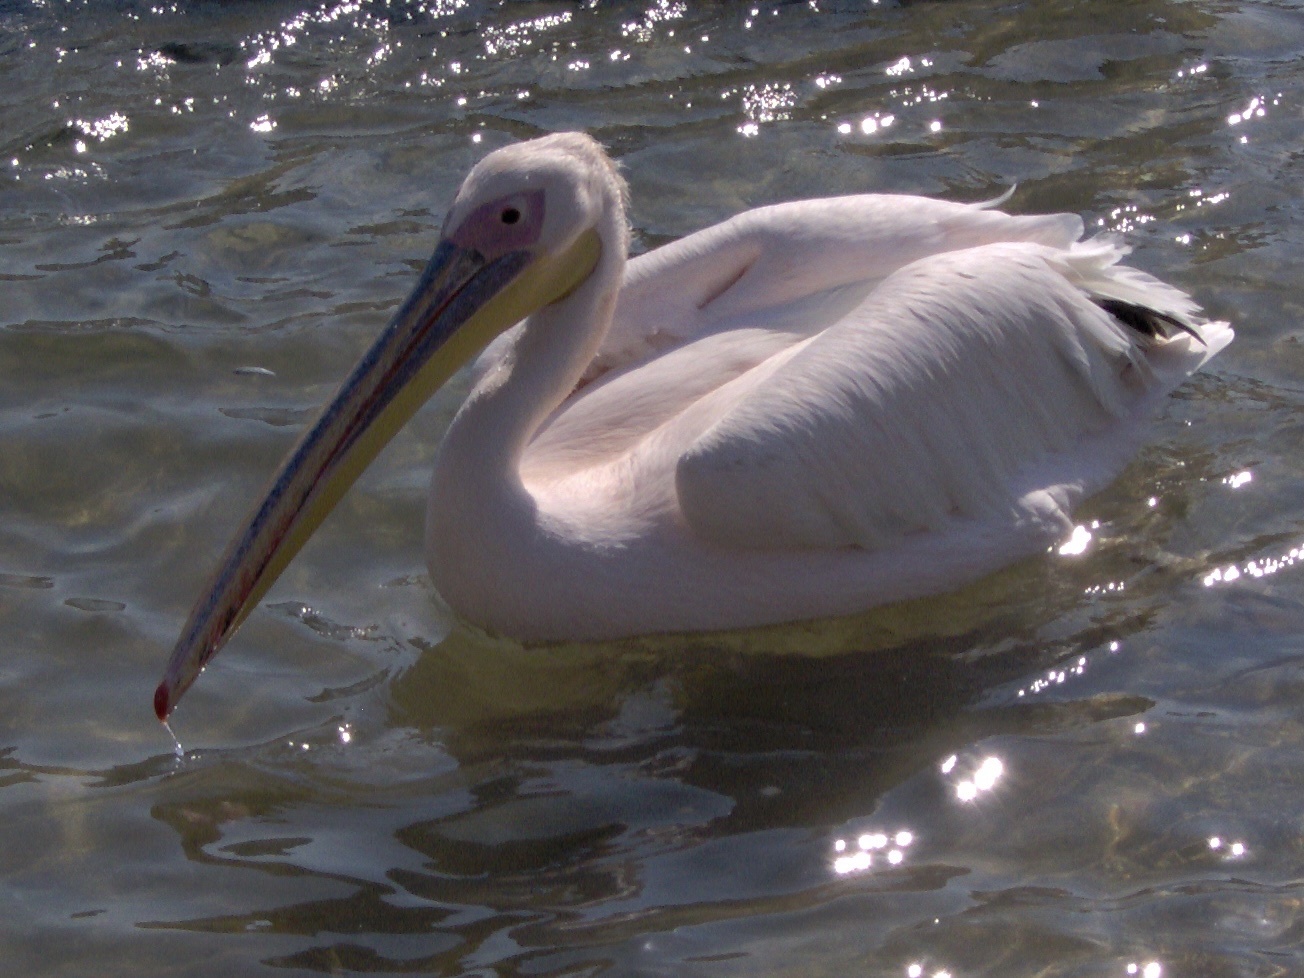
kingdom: Animalia
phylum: Chordata
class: Aves
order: Pelecaniformes
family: Pelecanidae
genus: Pelecanus
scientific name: Pelecanus onocrotalus
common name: Great white pelican
